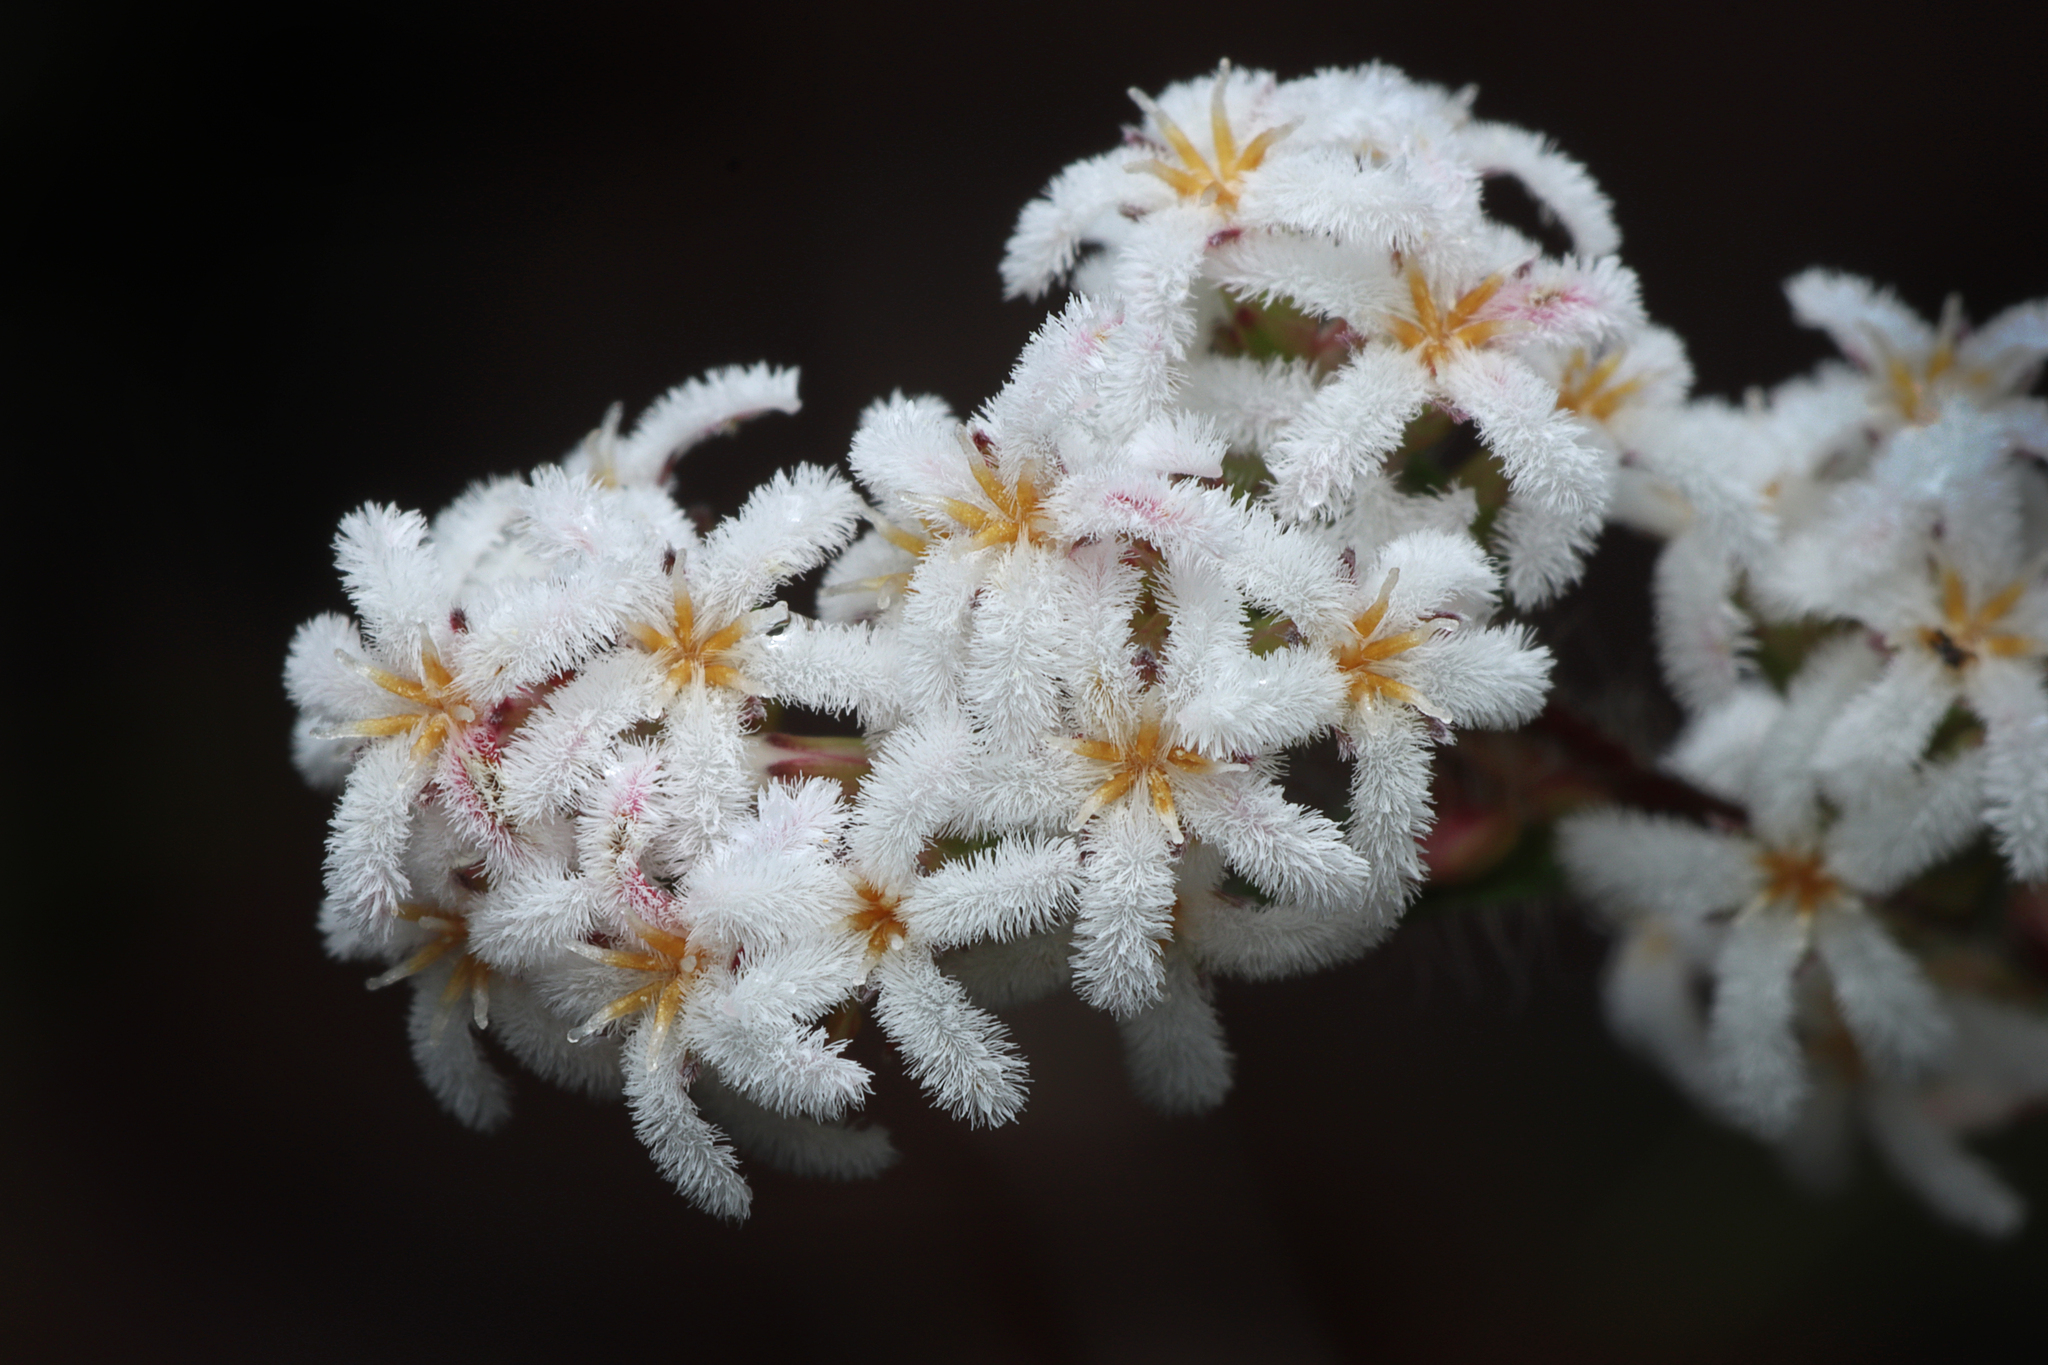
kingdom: Plantae
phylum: Tracheophyta
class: Magnoliopsida
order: Ericales
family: Ericaceae
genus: Leucopogon
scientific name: Leucopogon concurvus
